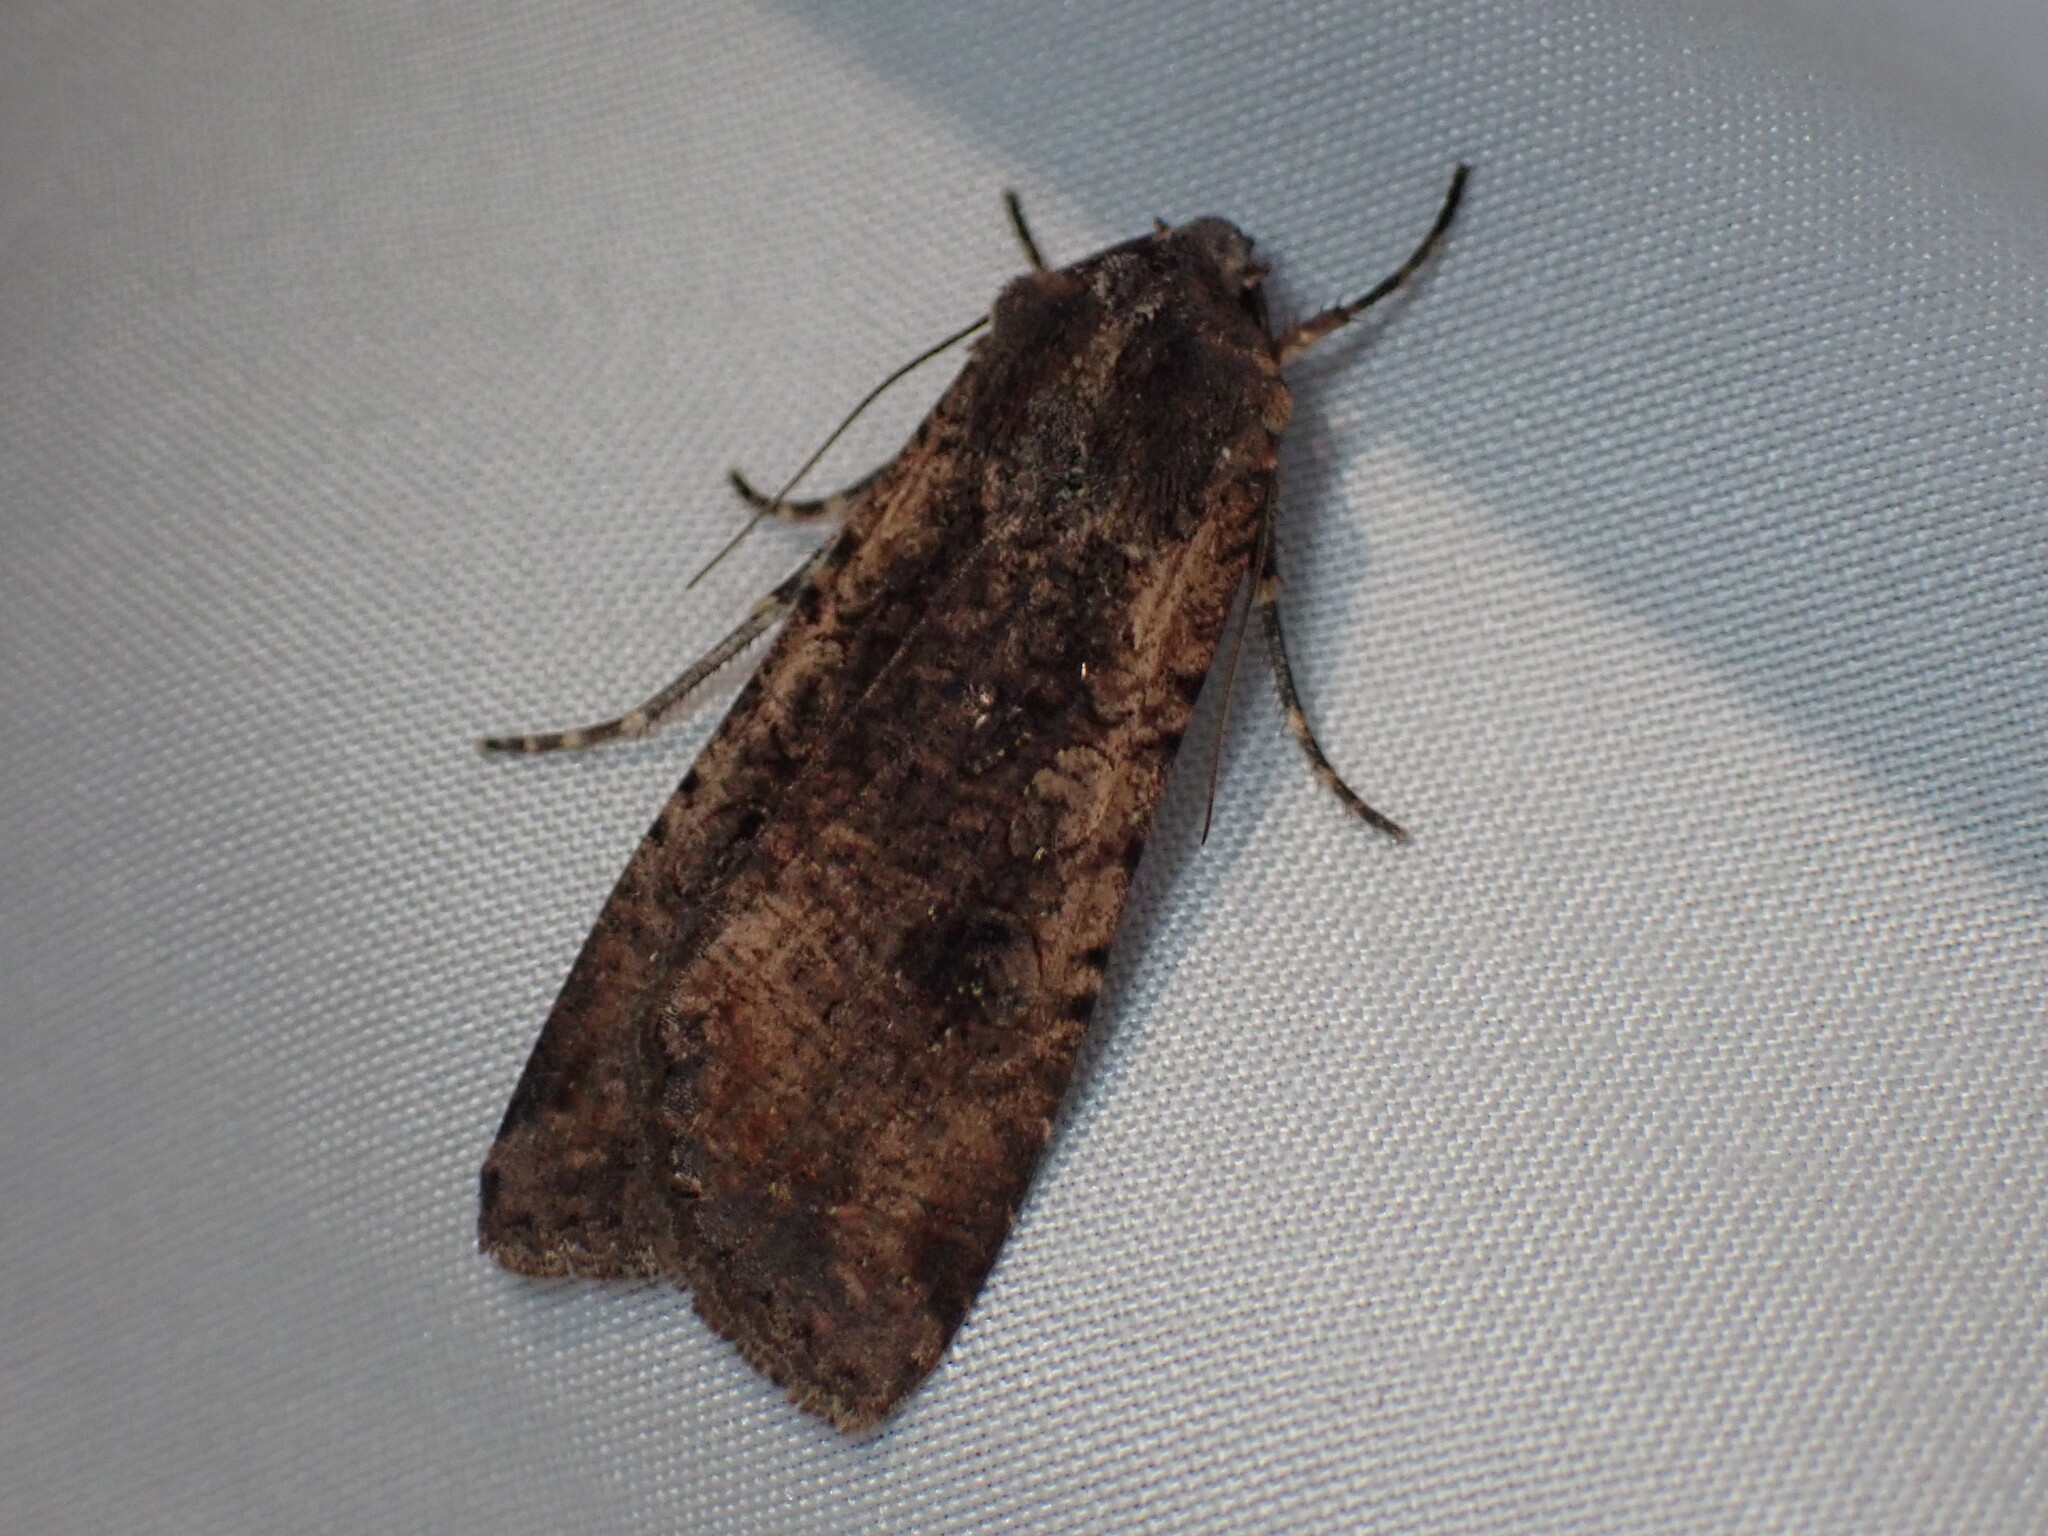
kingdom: Animalia
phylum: Arthropoda
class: Insecta
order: Lepidoptera
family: Noctuidae
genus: Peridroma
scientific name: Peridroma saucia
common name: Pearly underwing
